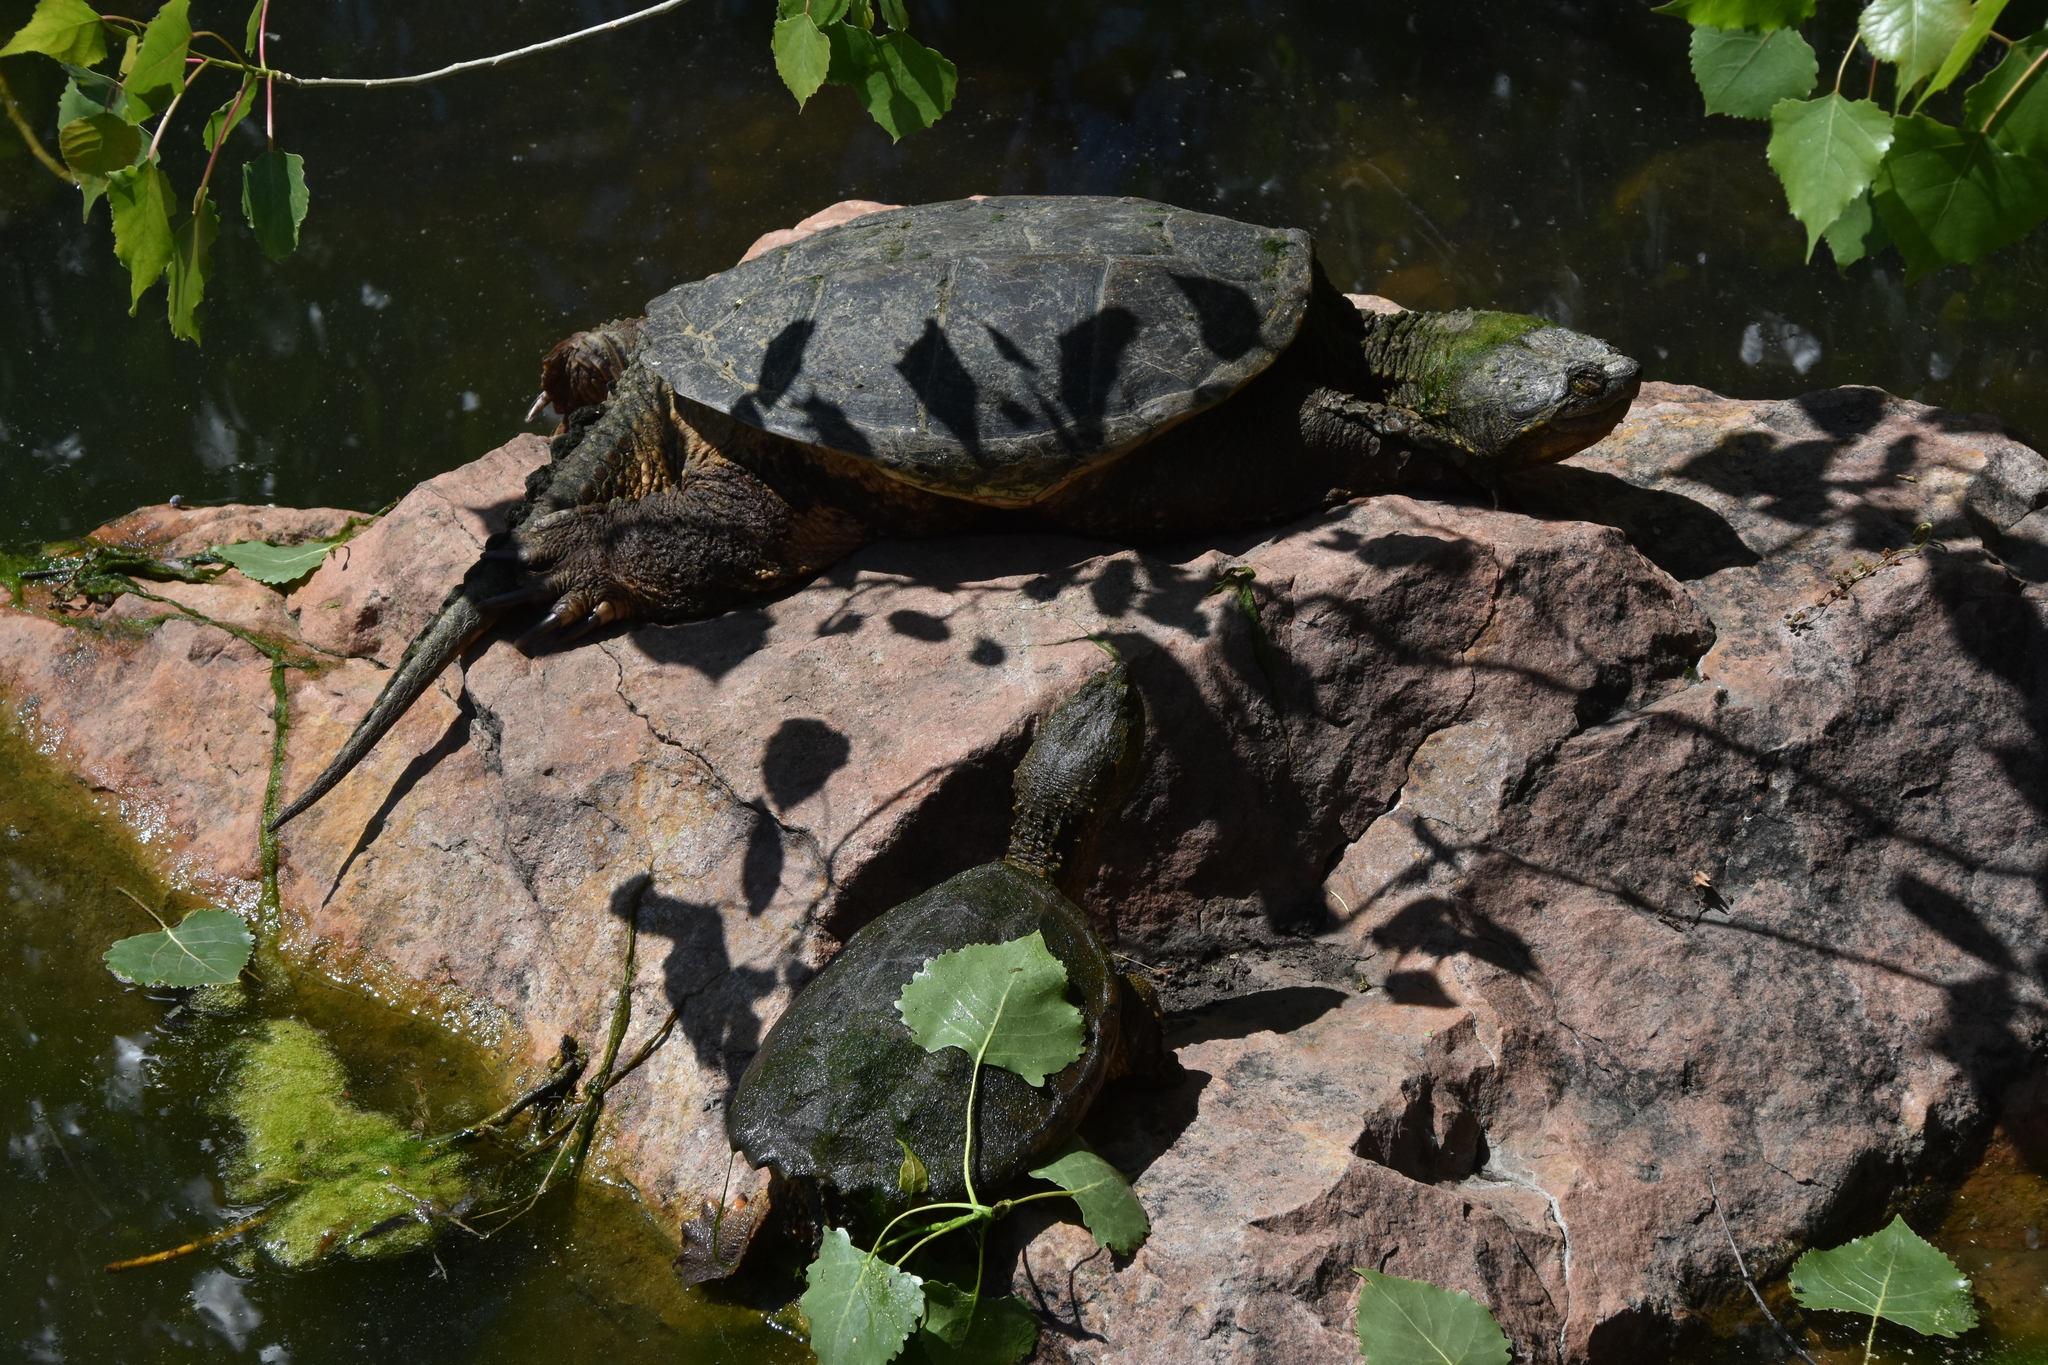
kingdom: Animalia
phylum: Chordata
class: Testudines
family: Chelydridae
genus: Chelydra
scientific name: Chelydra serpentina
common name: Common snapping turtle
